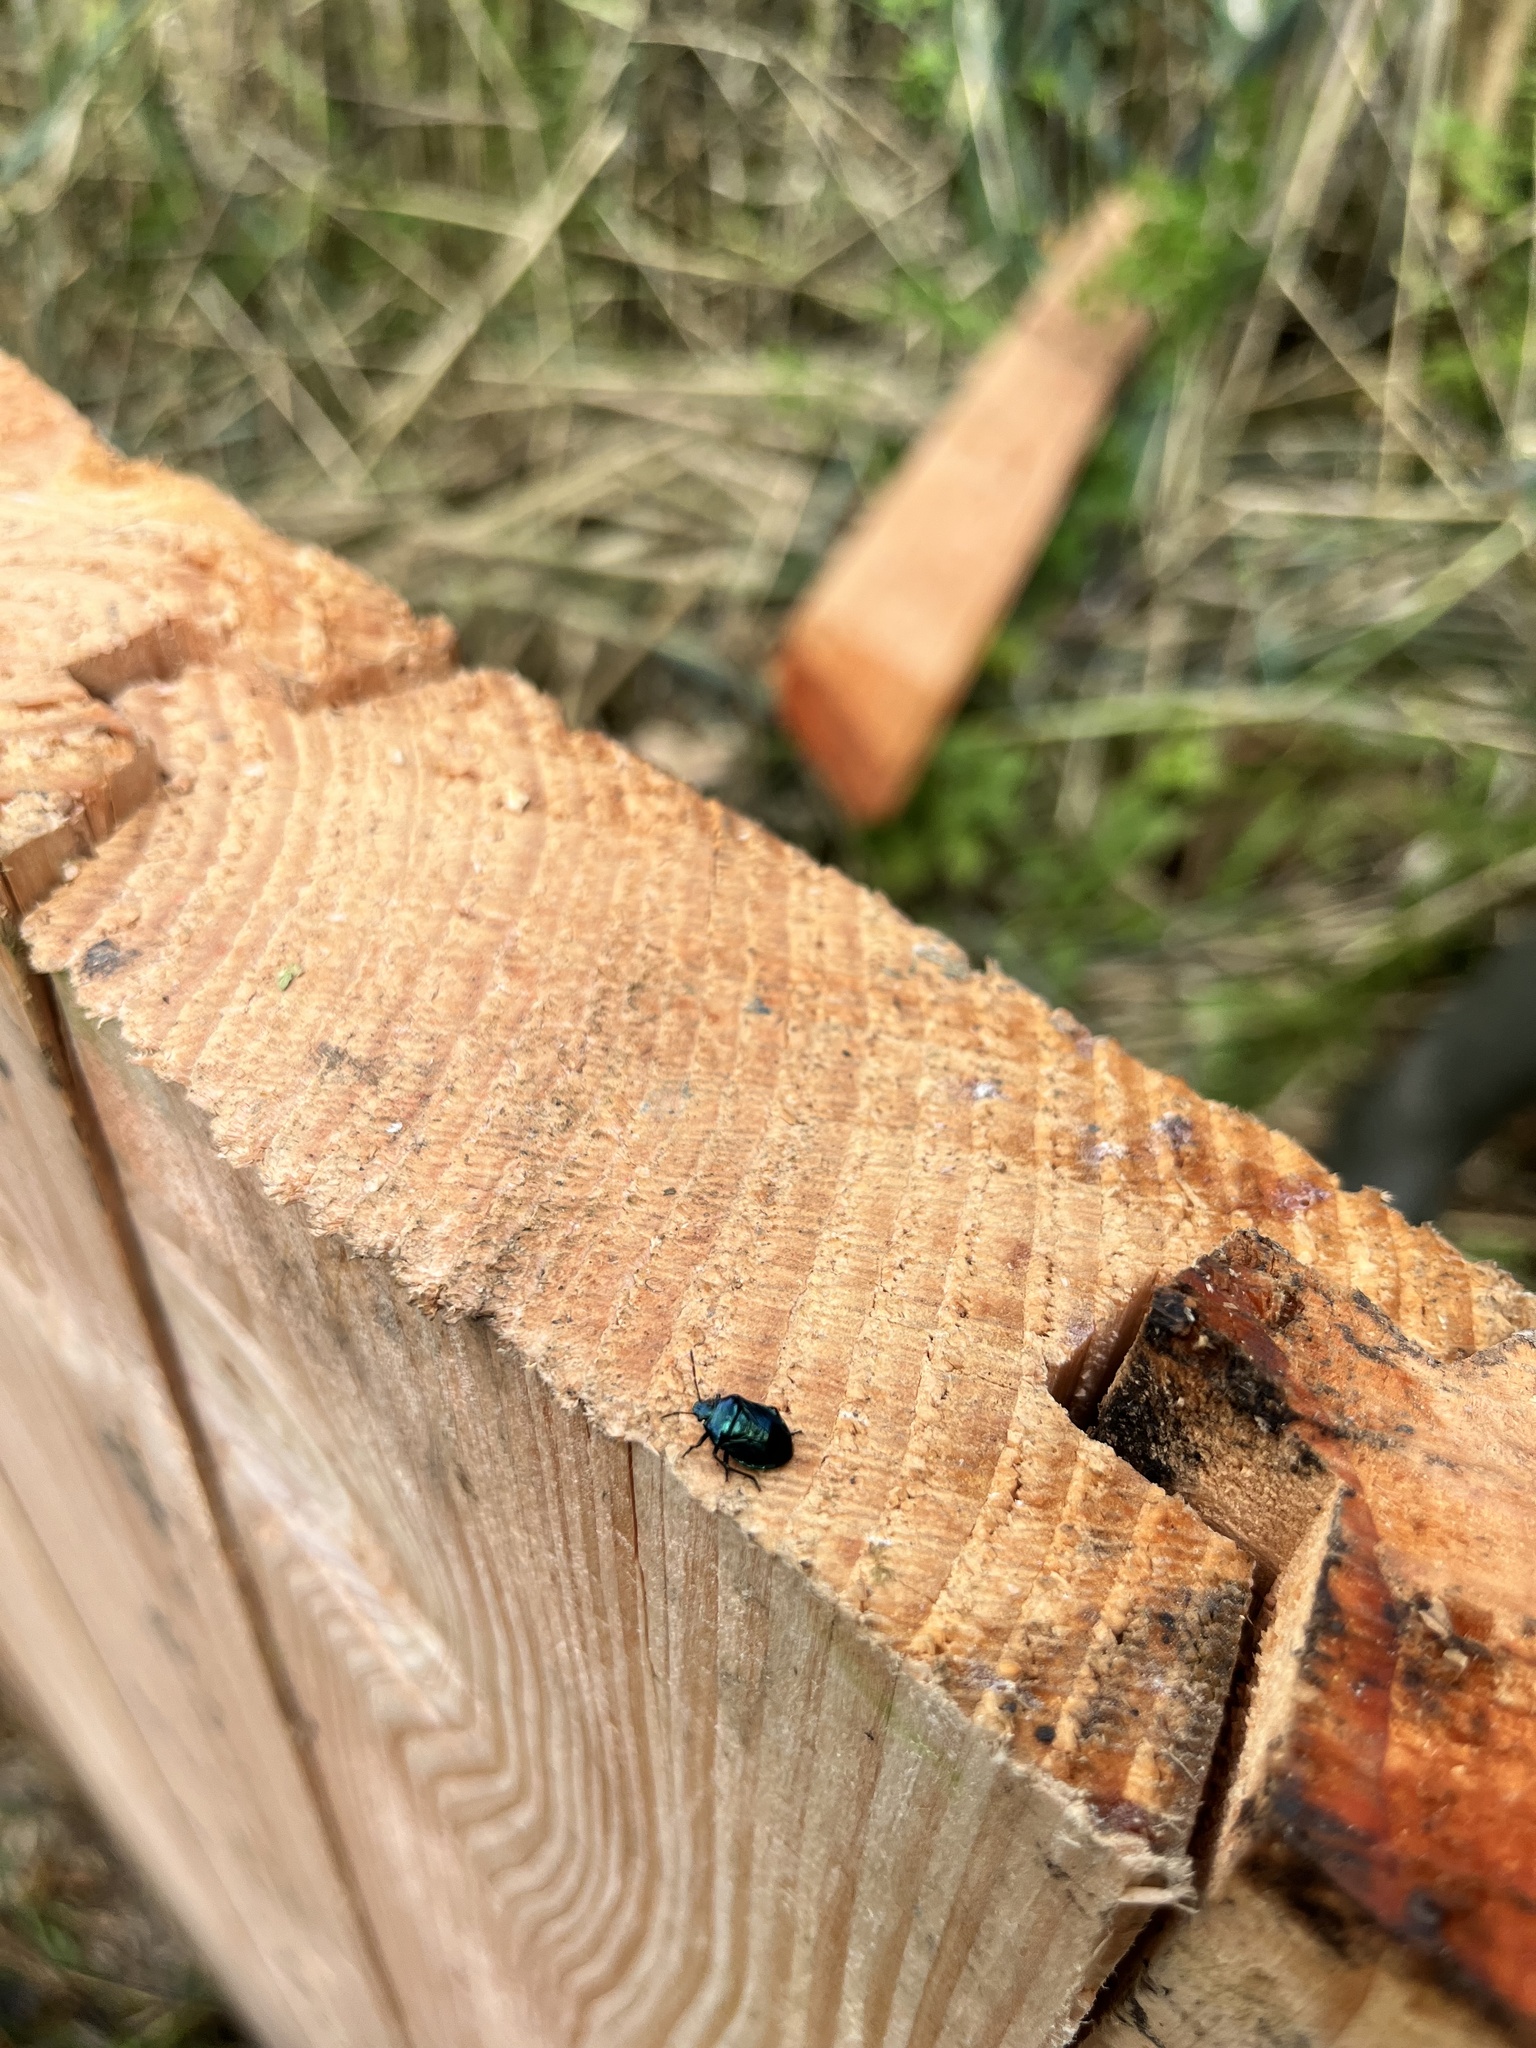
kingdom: Animalia
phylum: Arthropoda
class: Insecta
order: Hemiptera
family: Pentatomidae
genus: Zicrona
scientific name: Zicrona caerulea
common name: Blue shieldbug
